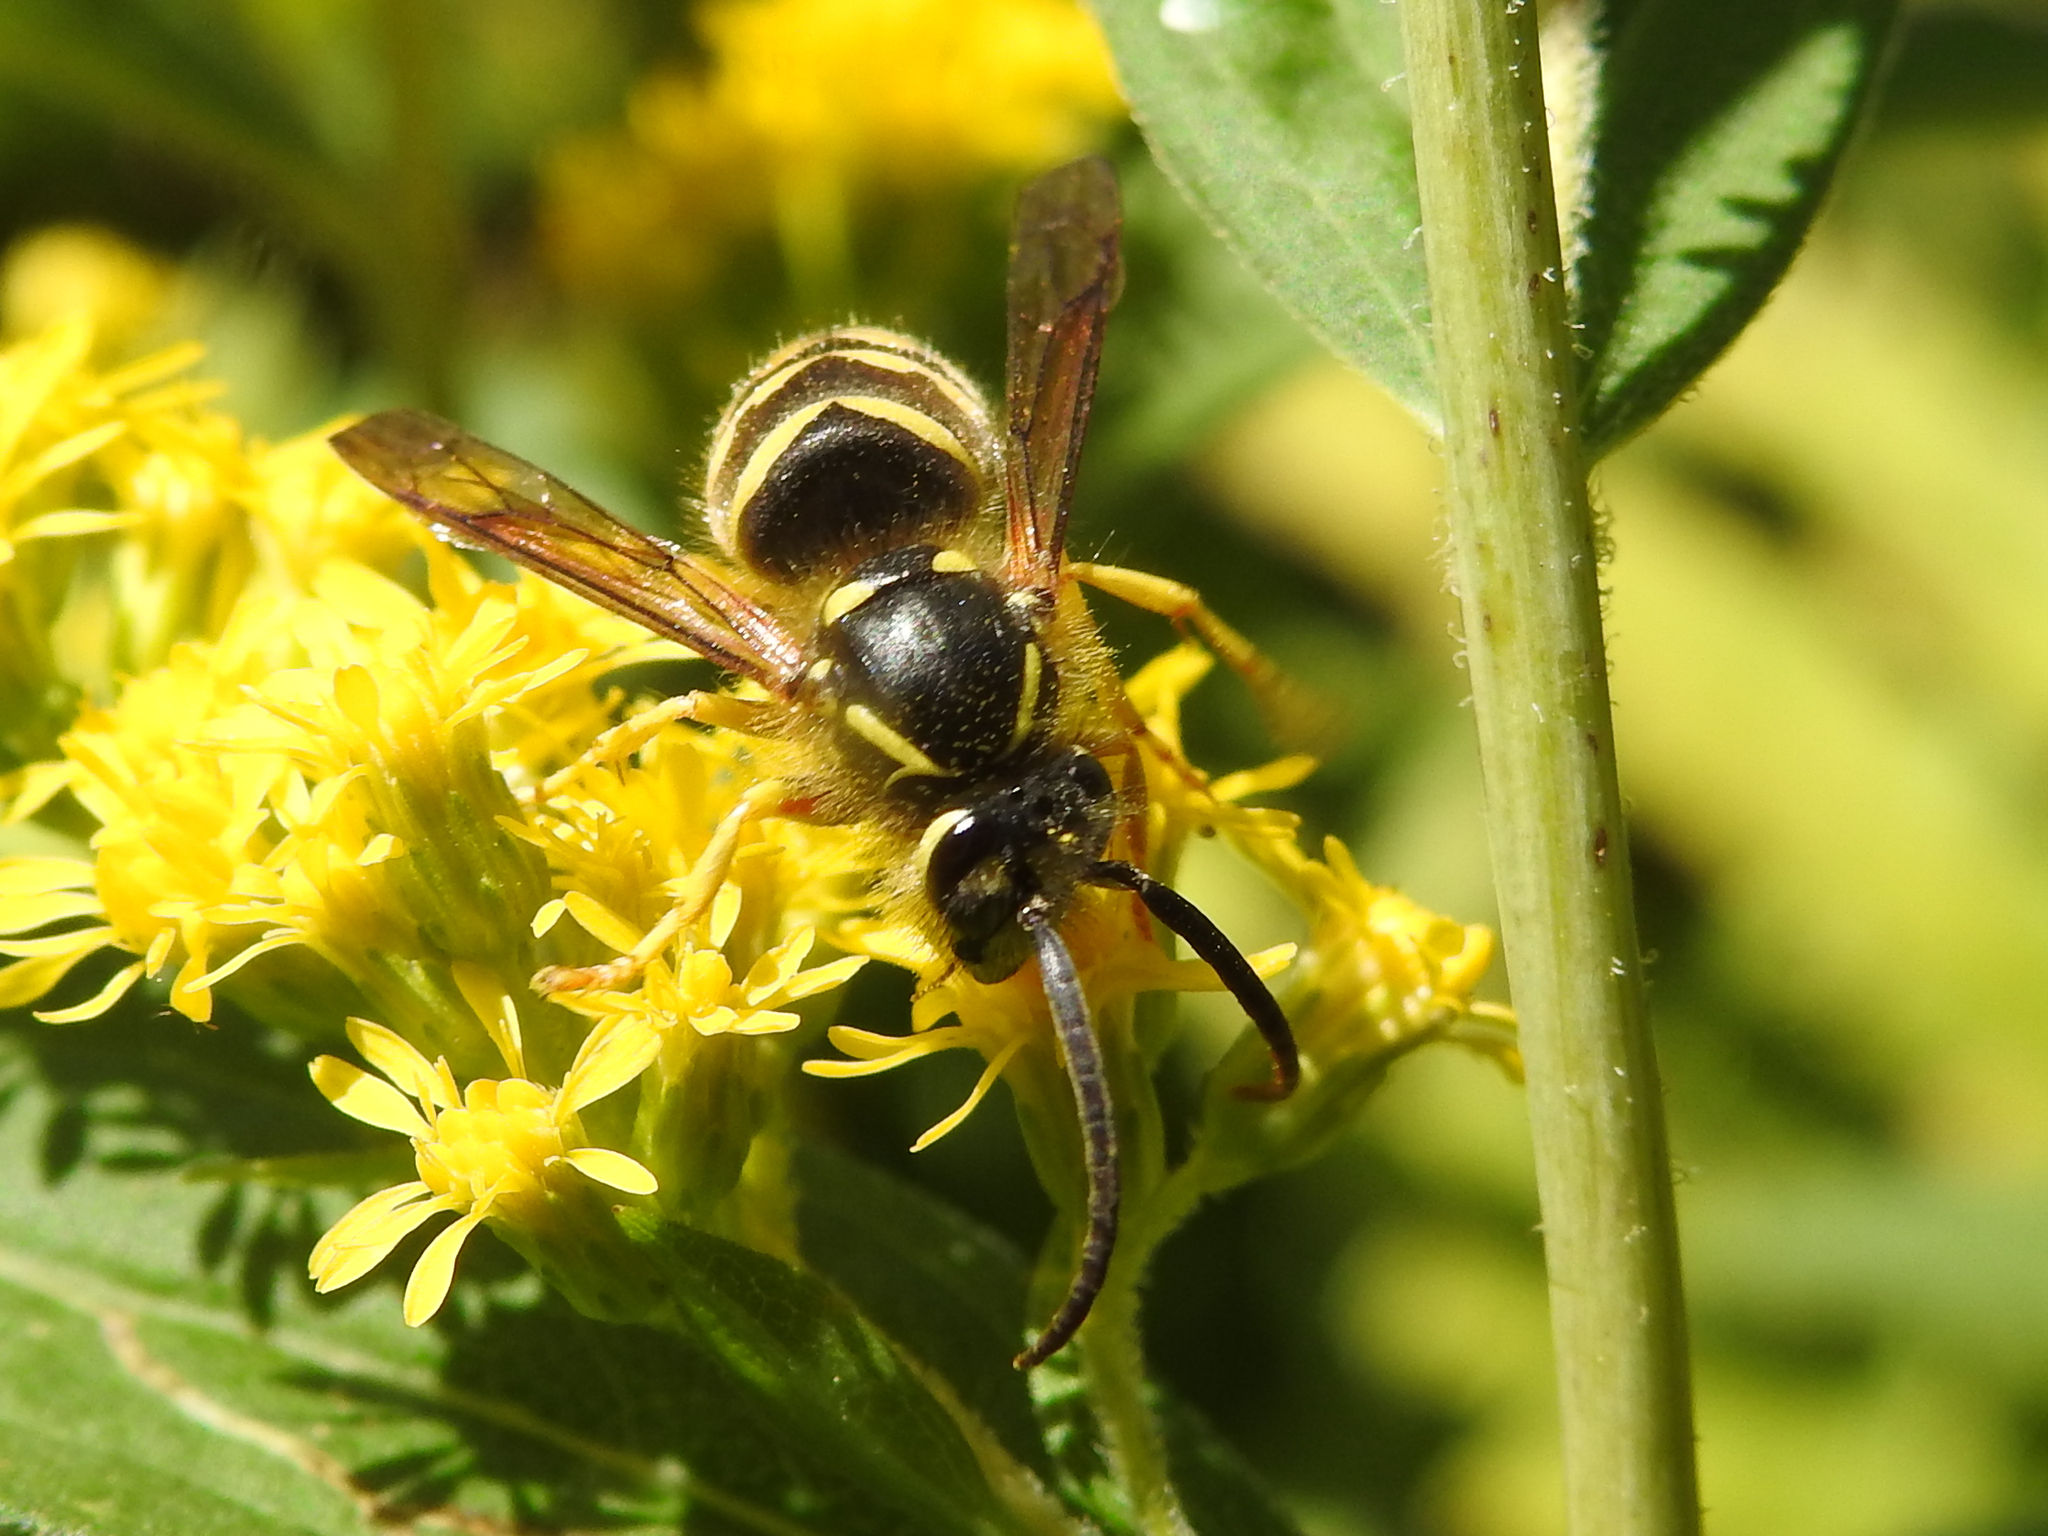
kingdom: Animalia
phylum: Arthropoda
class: Insecta
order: Hymenoptera
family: Vespidae
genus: Dolichovespula
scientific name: Dolichovespula arenaria
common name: Aerial yellowjacket
